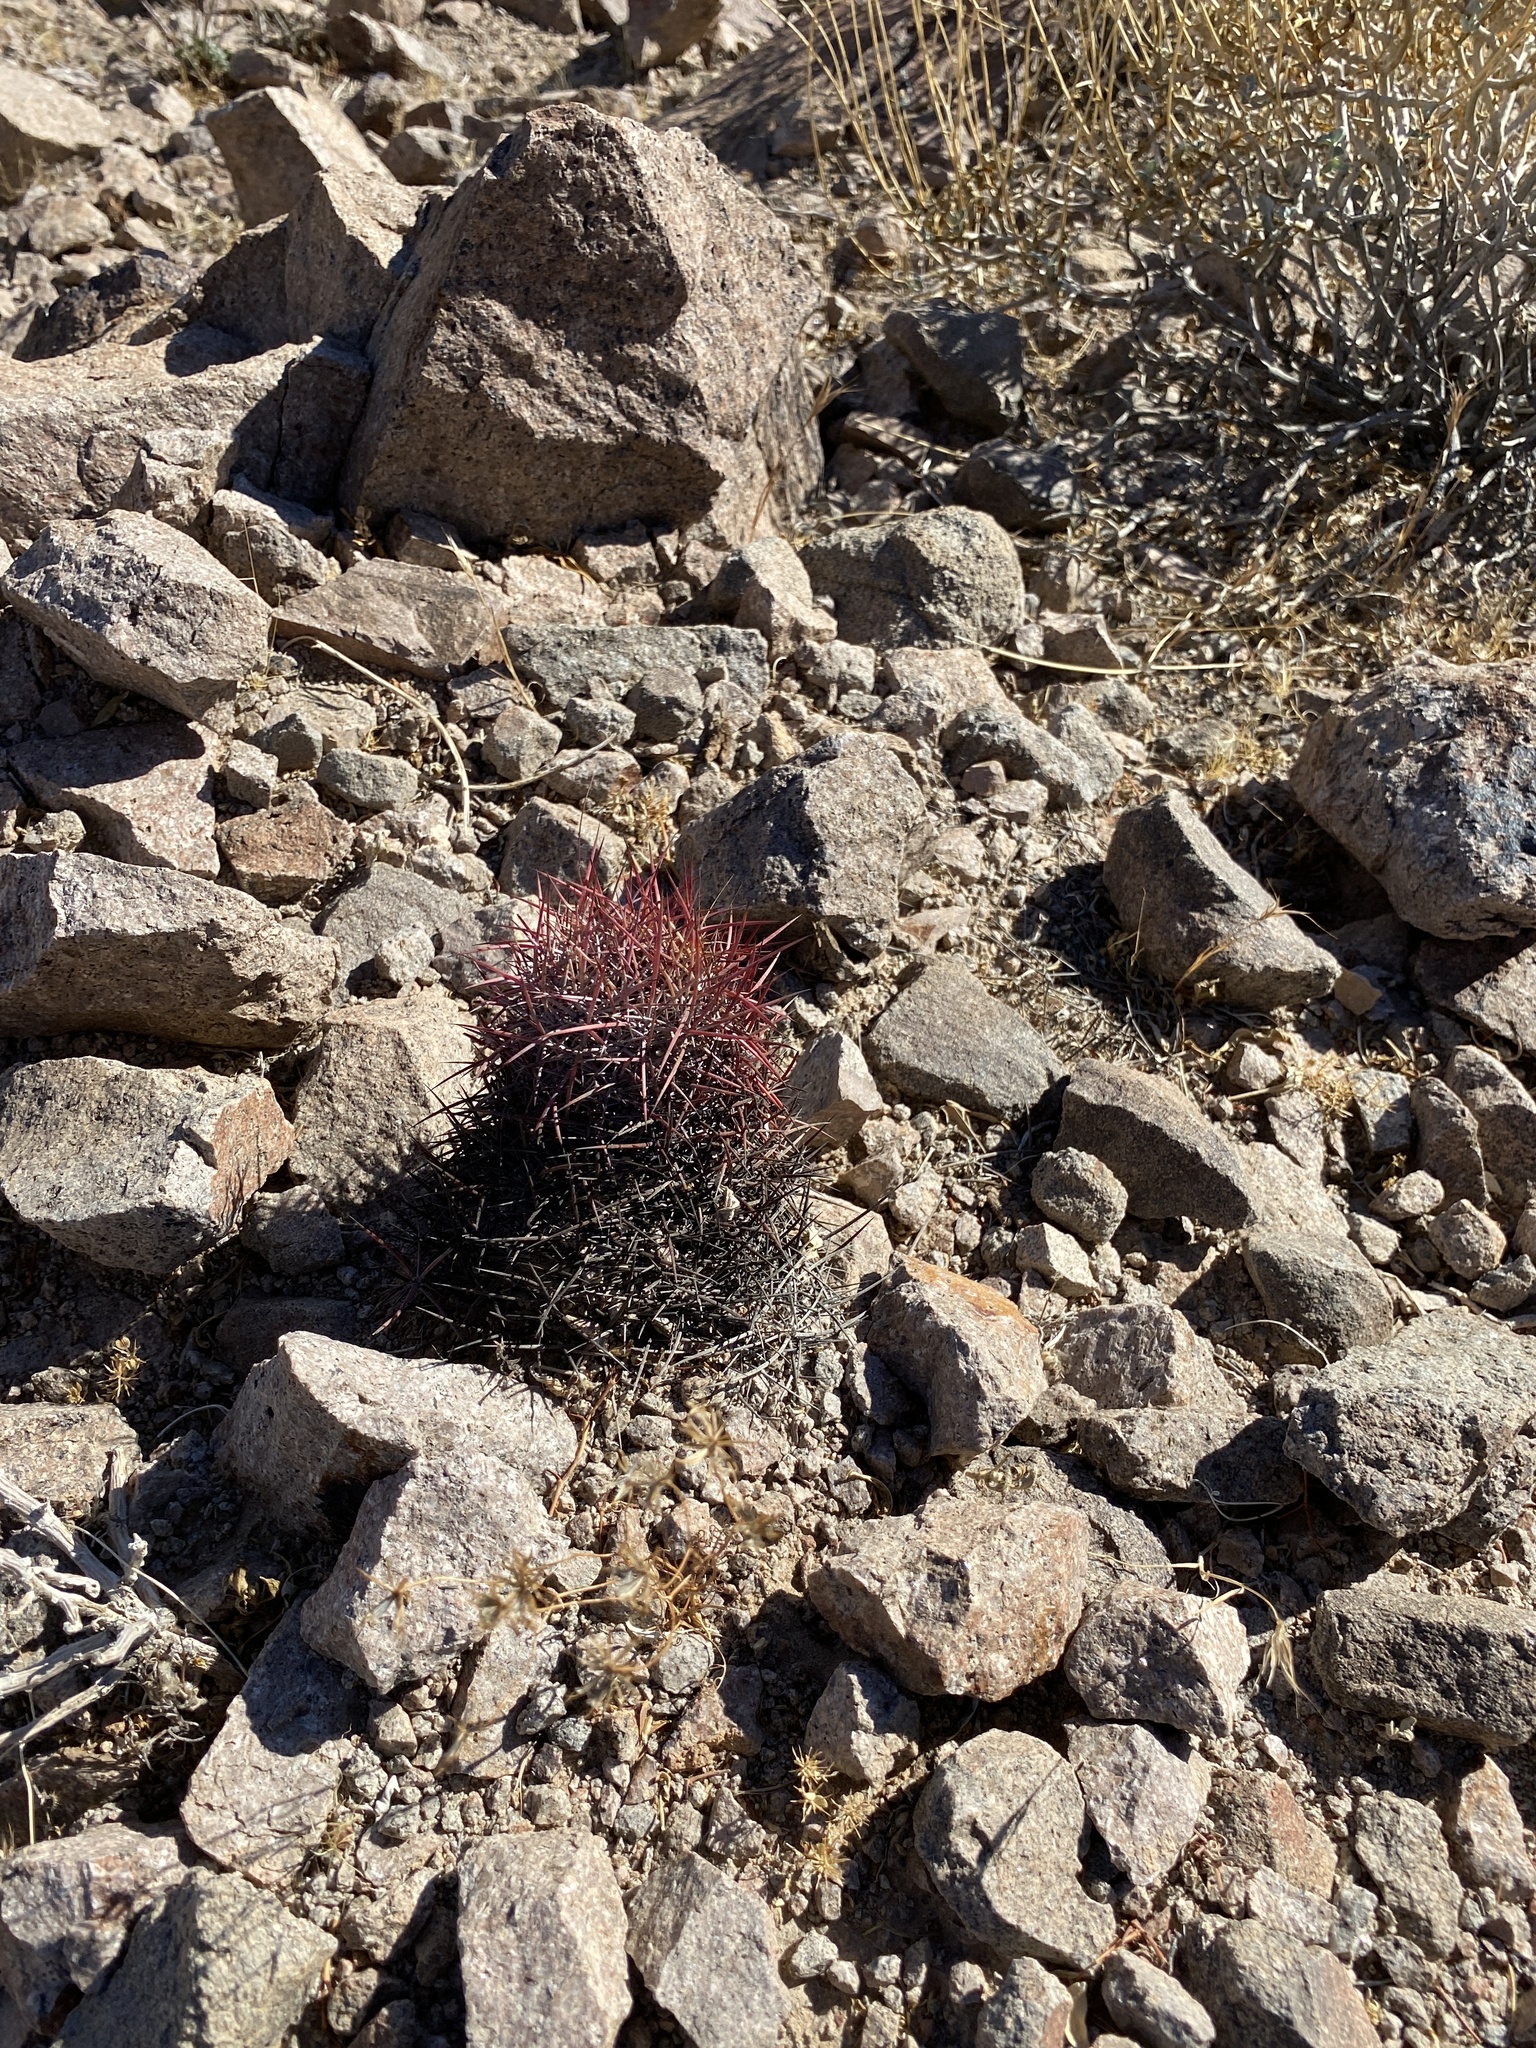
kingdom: Plantae
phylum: Tracheophyta
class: Magnoliopsida
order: Caryophyllales
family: Cactaceae
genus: Sclerocactus
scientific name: Sclerocactus johnsonii
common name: Eight-spine fishhook cactus
